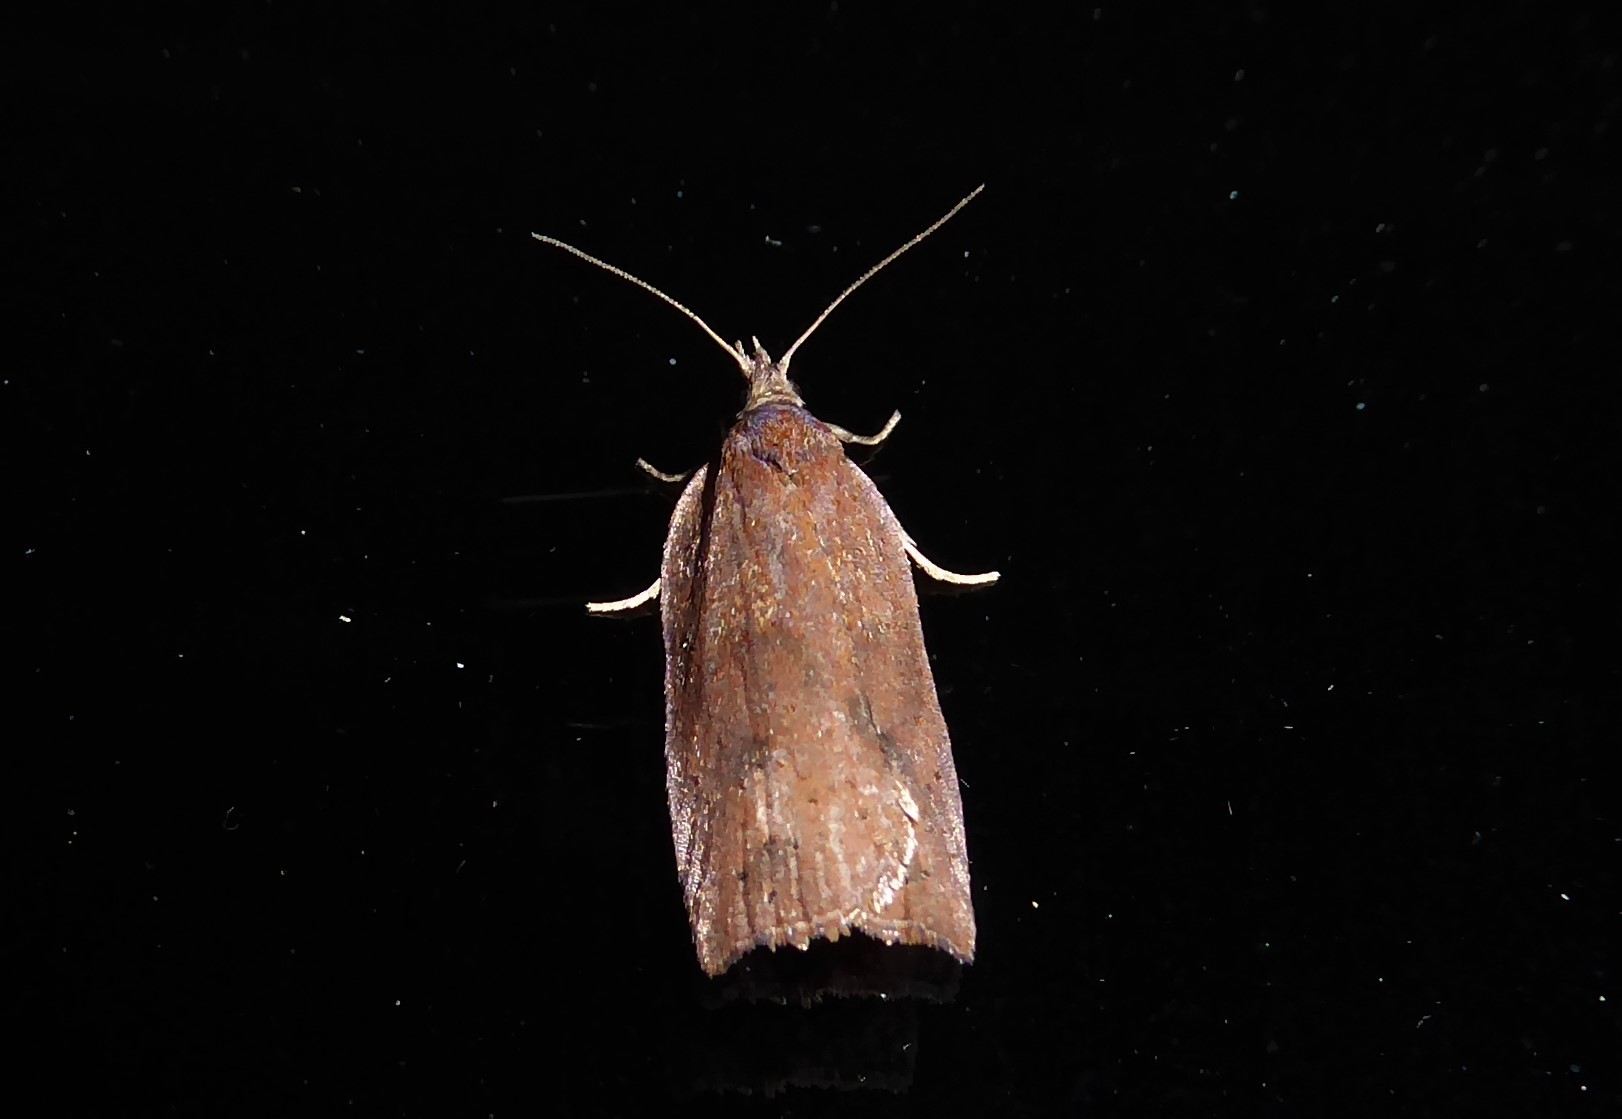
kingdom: Animalia
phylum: Arthropoda
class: Insecta
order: Lepidoptera
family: Tortricidae
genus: Planotortrix
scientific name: Planotortrix excessana
